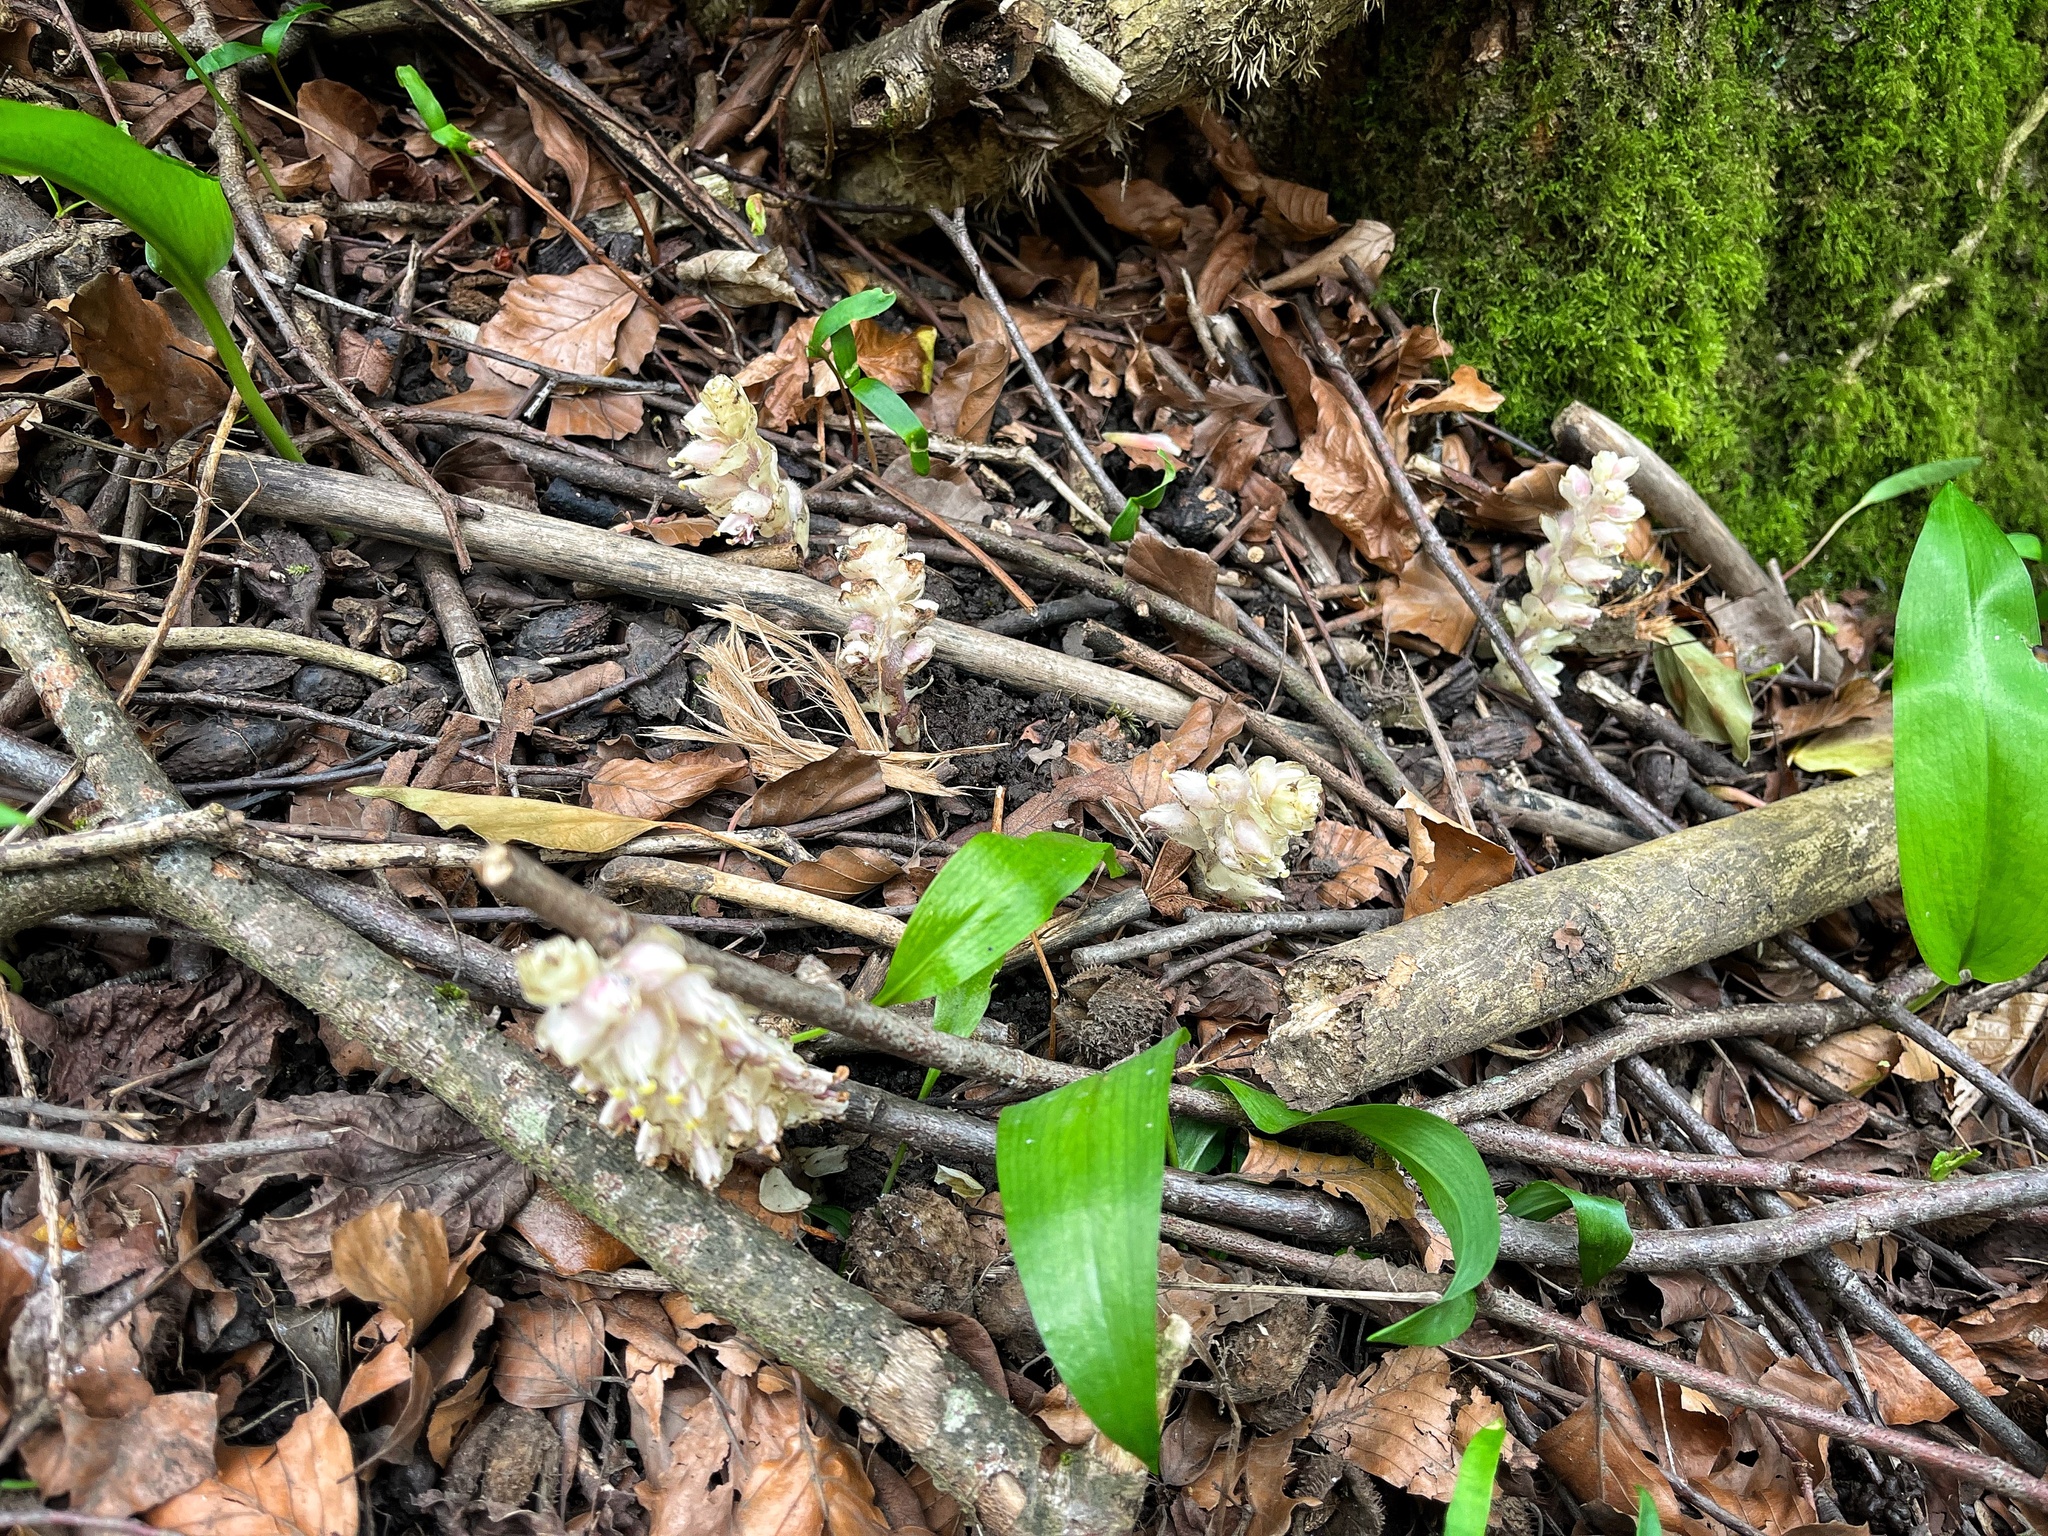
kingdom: Plantae
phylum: Tracheophyta
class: Magnoliopsida
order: Lamiales
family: Orobanchaceae
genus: Lathraea
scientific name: Lathraea squamaria
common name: Toothwort
